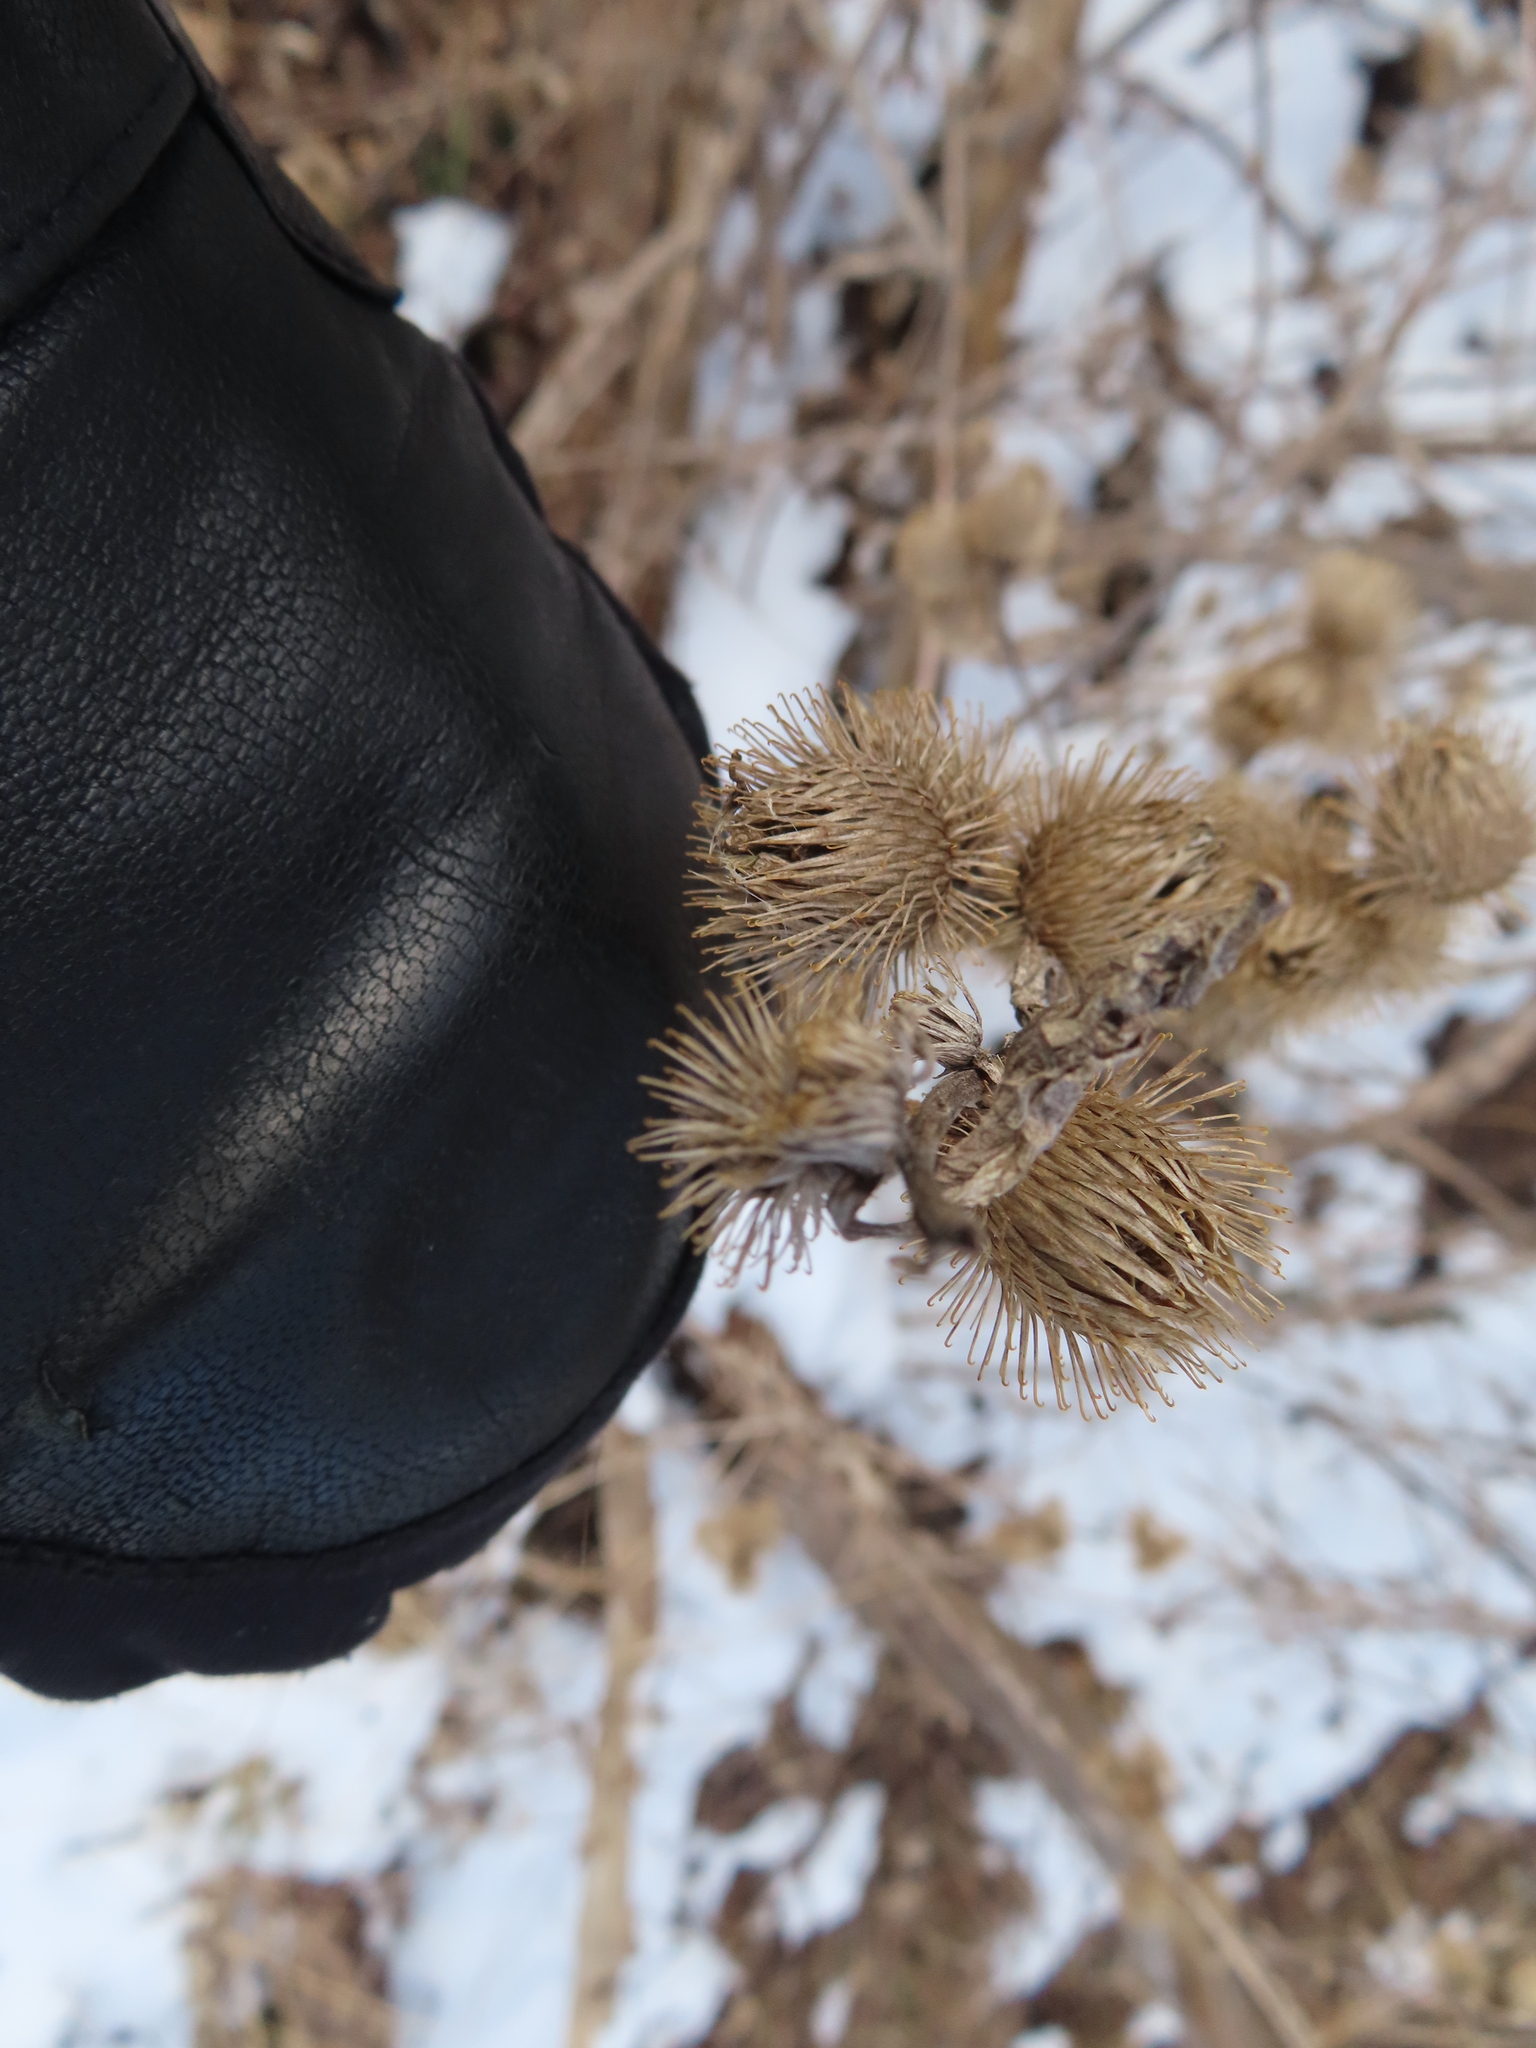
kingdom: Plantae
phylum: Tracheophyta
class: Magnoliopsida
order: Asterales
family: Asteraceae
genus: Arctium
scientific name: Arctium minus
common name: Lesser burdock
